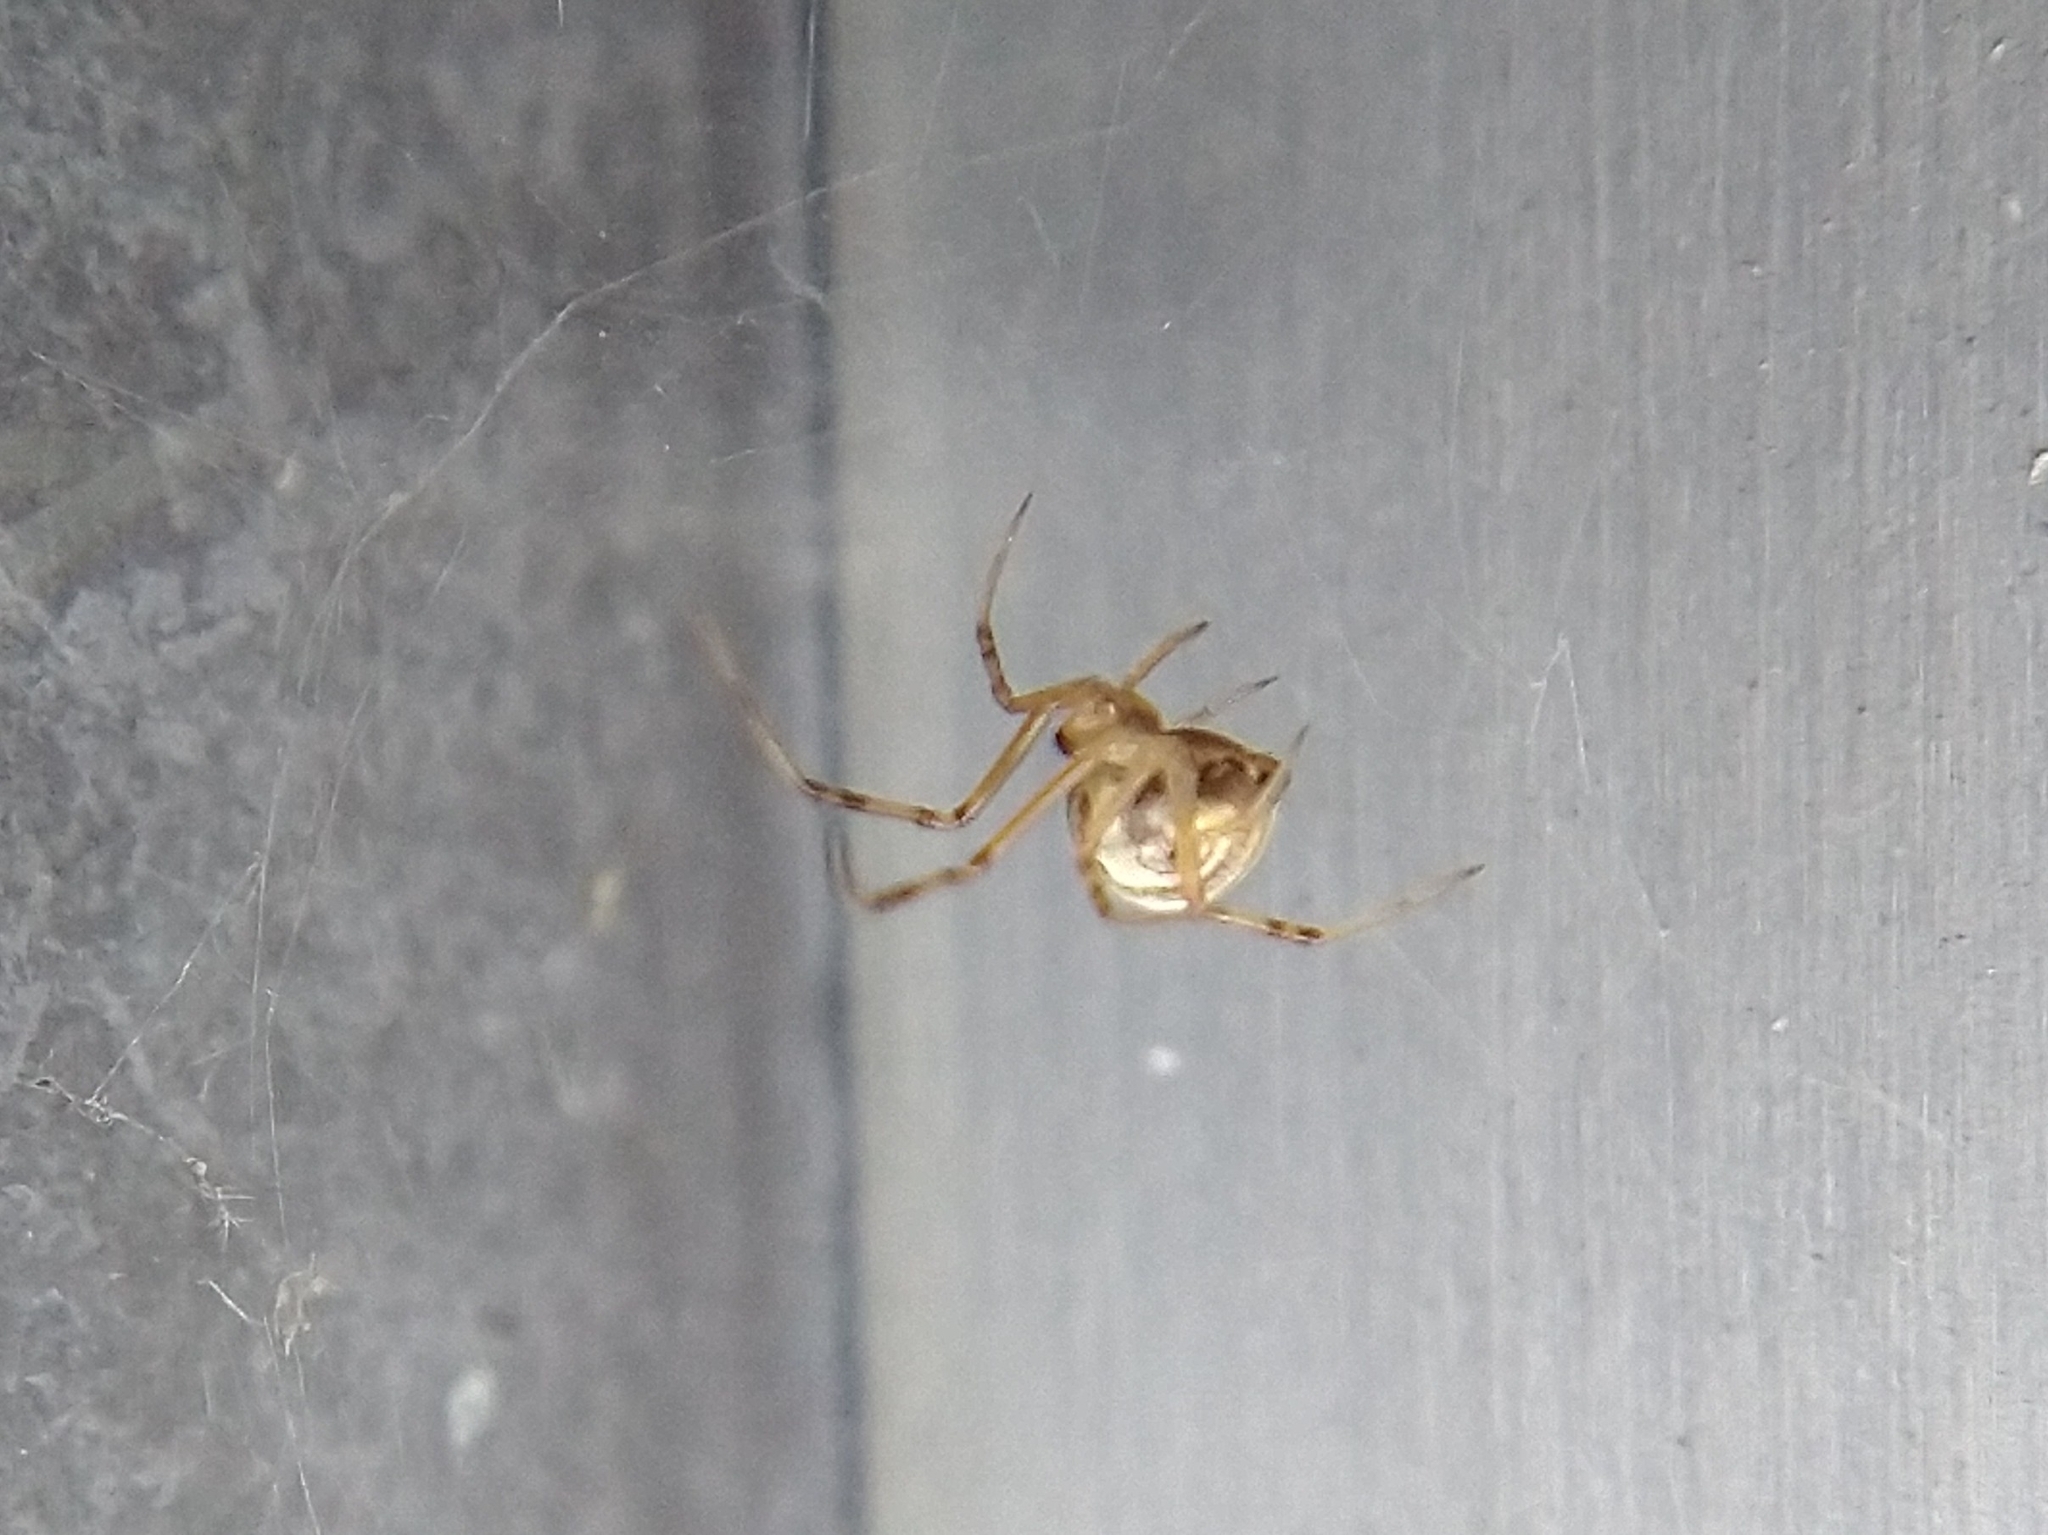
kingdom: Animalia
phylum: Arthropoda
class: Arachnida
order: Araneae
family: Theridiidae
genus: Latrodectus
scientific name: Latrodectus hesperus
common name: Western black widow
